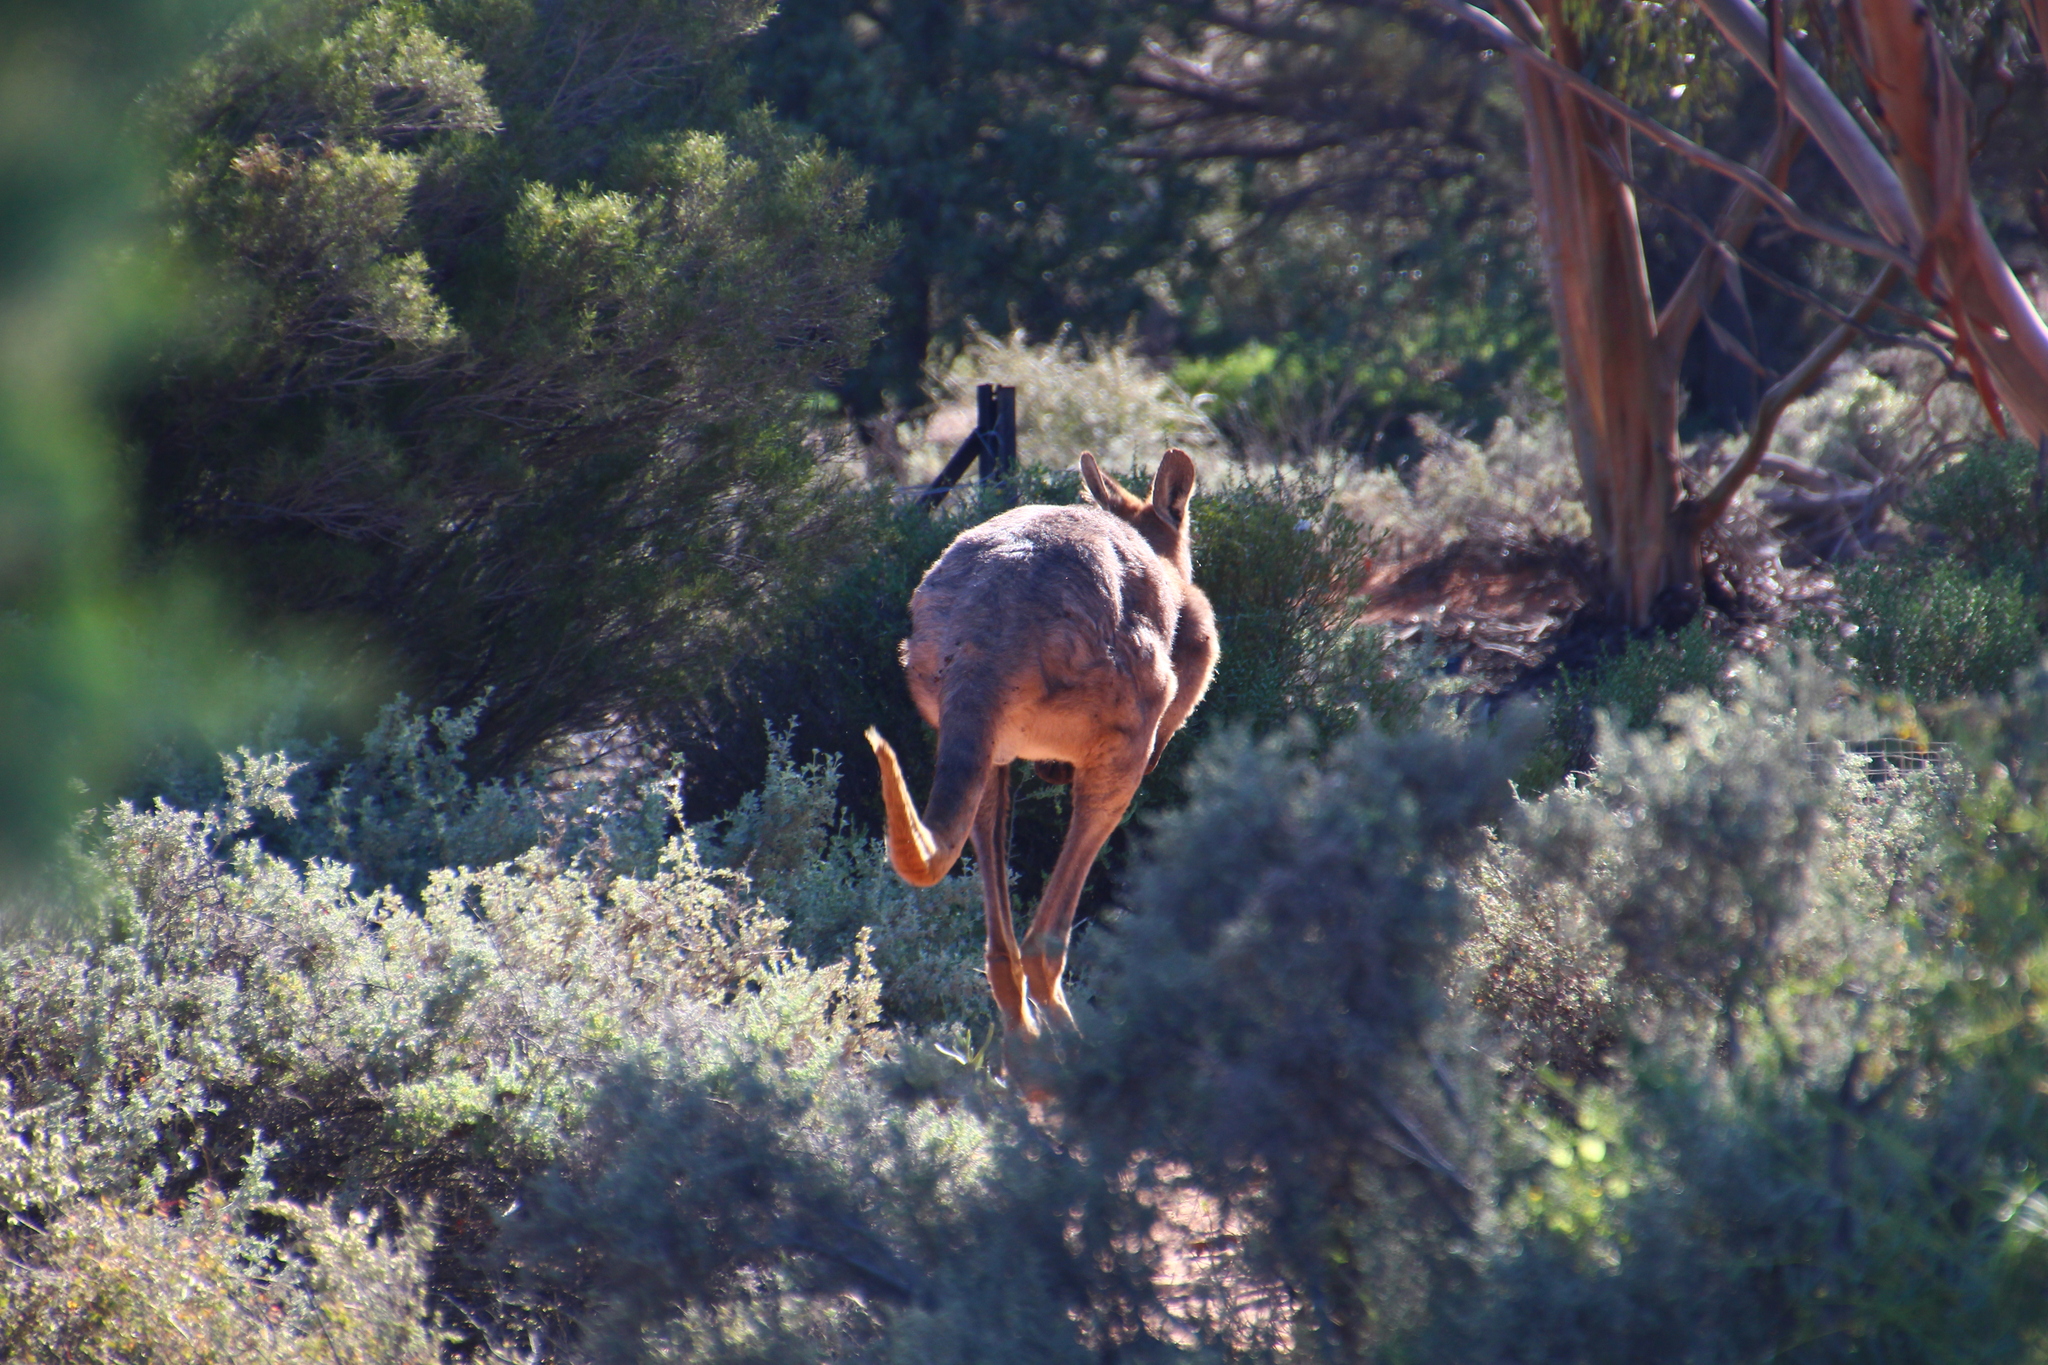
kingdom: Animalia
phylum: Chordata
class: Mammalia
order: Diprotodontia
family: Macropodidae
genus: Macropus
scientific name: Macropus robustus
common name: Eastern wallaroo
